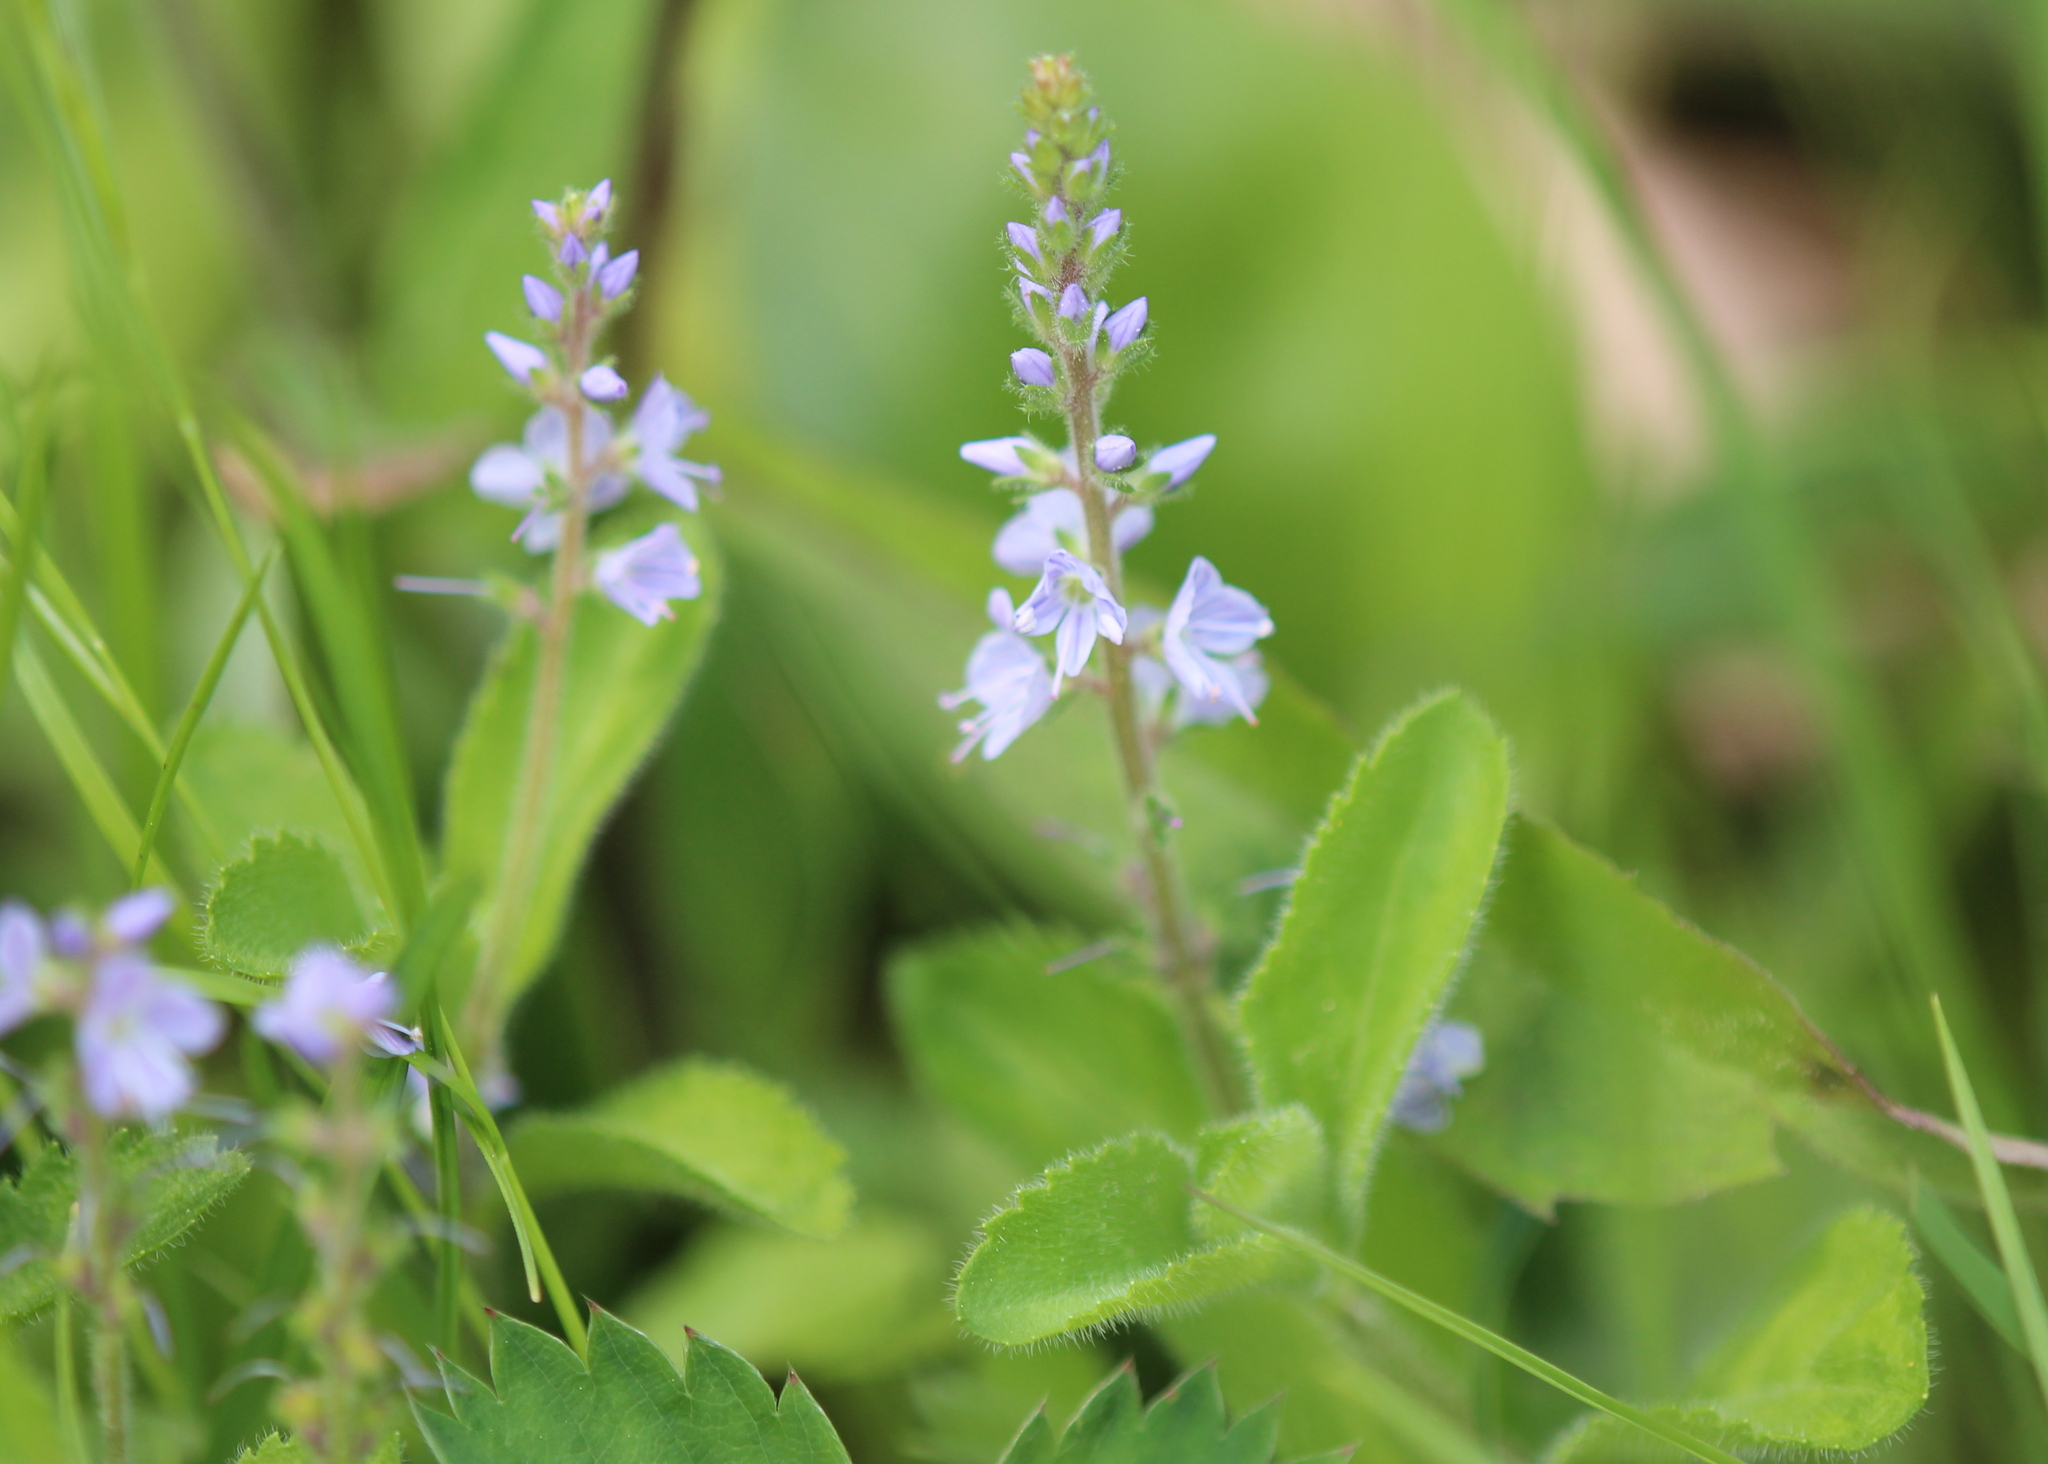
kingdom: Plantae
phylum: Tracheophyta
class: Magnoliopsida
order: Lamiales
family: Plantaginaceae
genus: Veronica
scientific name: Veronica officinalis
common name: Common speedwell
